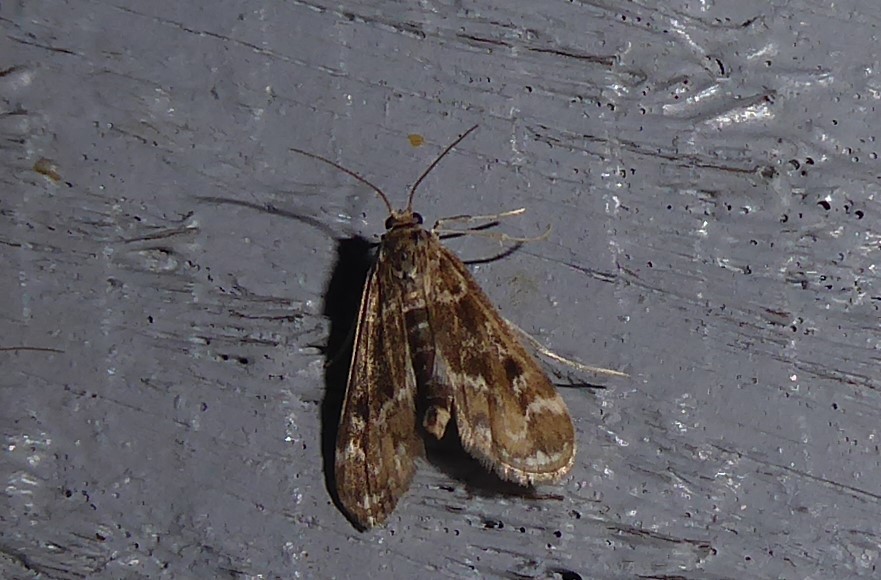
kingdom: Animalia
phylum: Arthropoda
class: Insecta
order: Lepidoptera
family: Crambidae
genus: Hygraula
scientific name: Hygraula nitens
